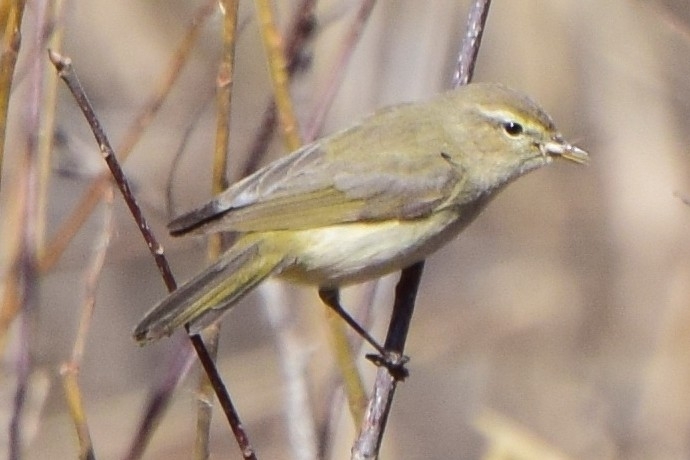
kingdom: Animalia
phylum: Chordata
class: Aves
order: Passeriformes
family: Phylloscopidae
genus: Phylloscopus
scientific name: Phylloscopus collybita
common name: Common chiffchaff
